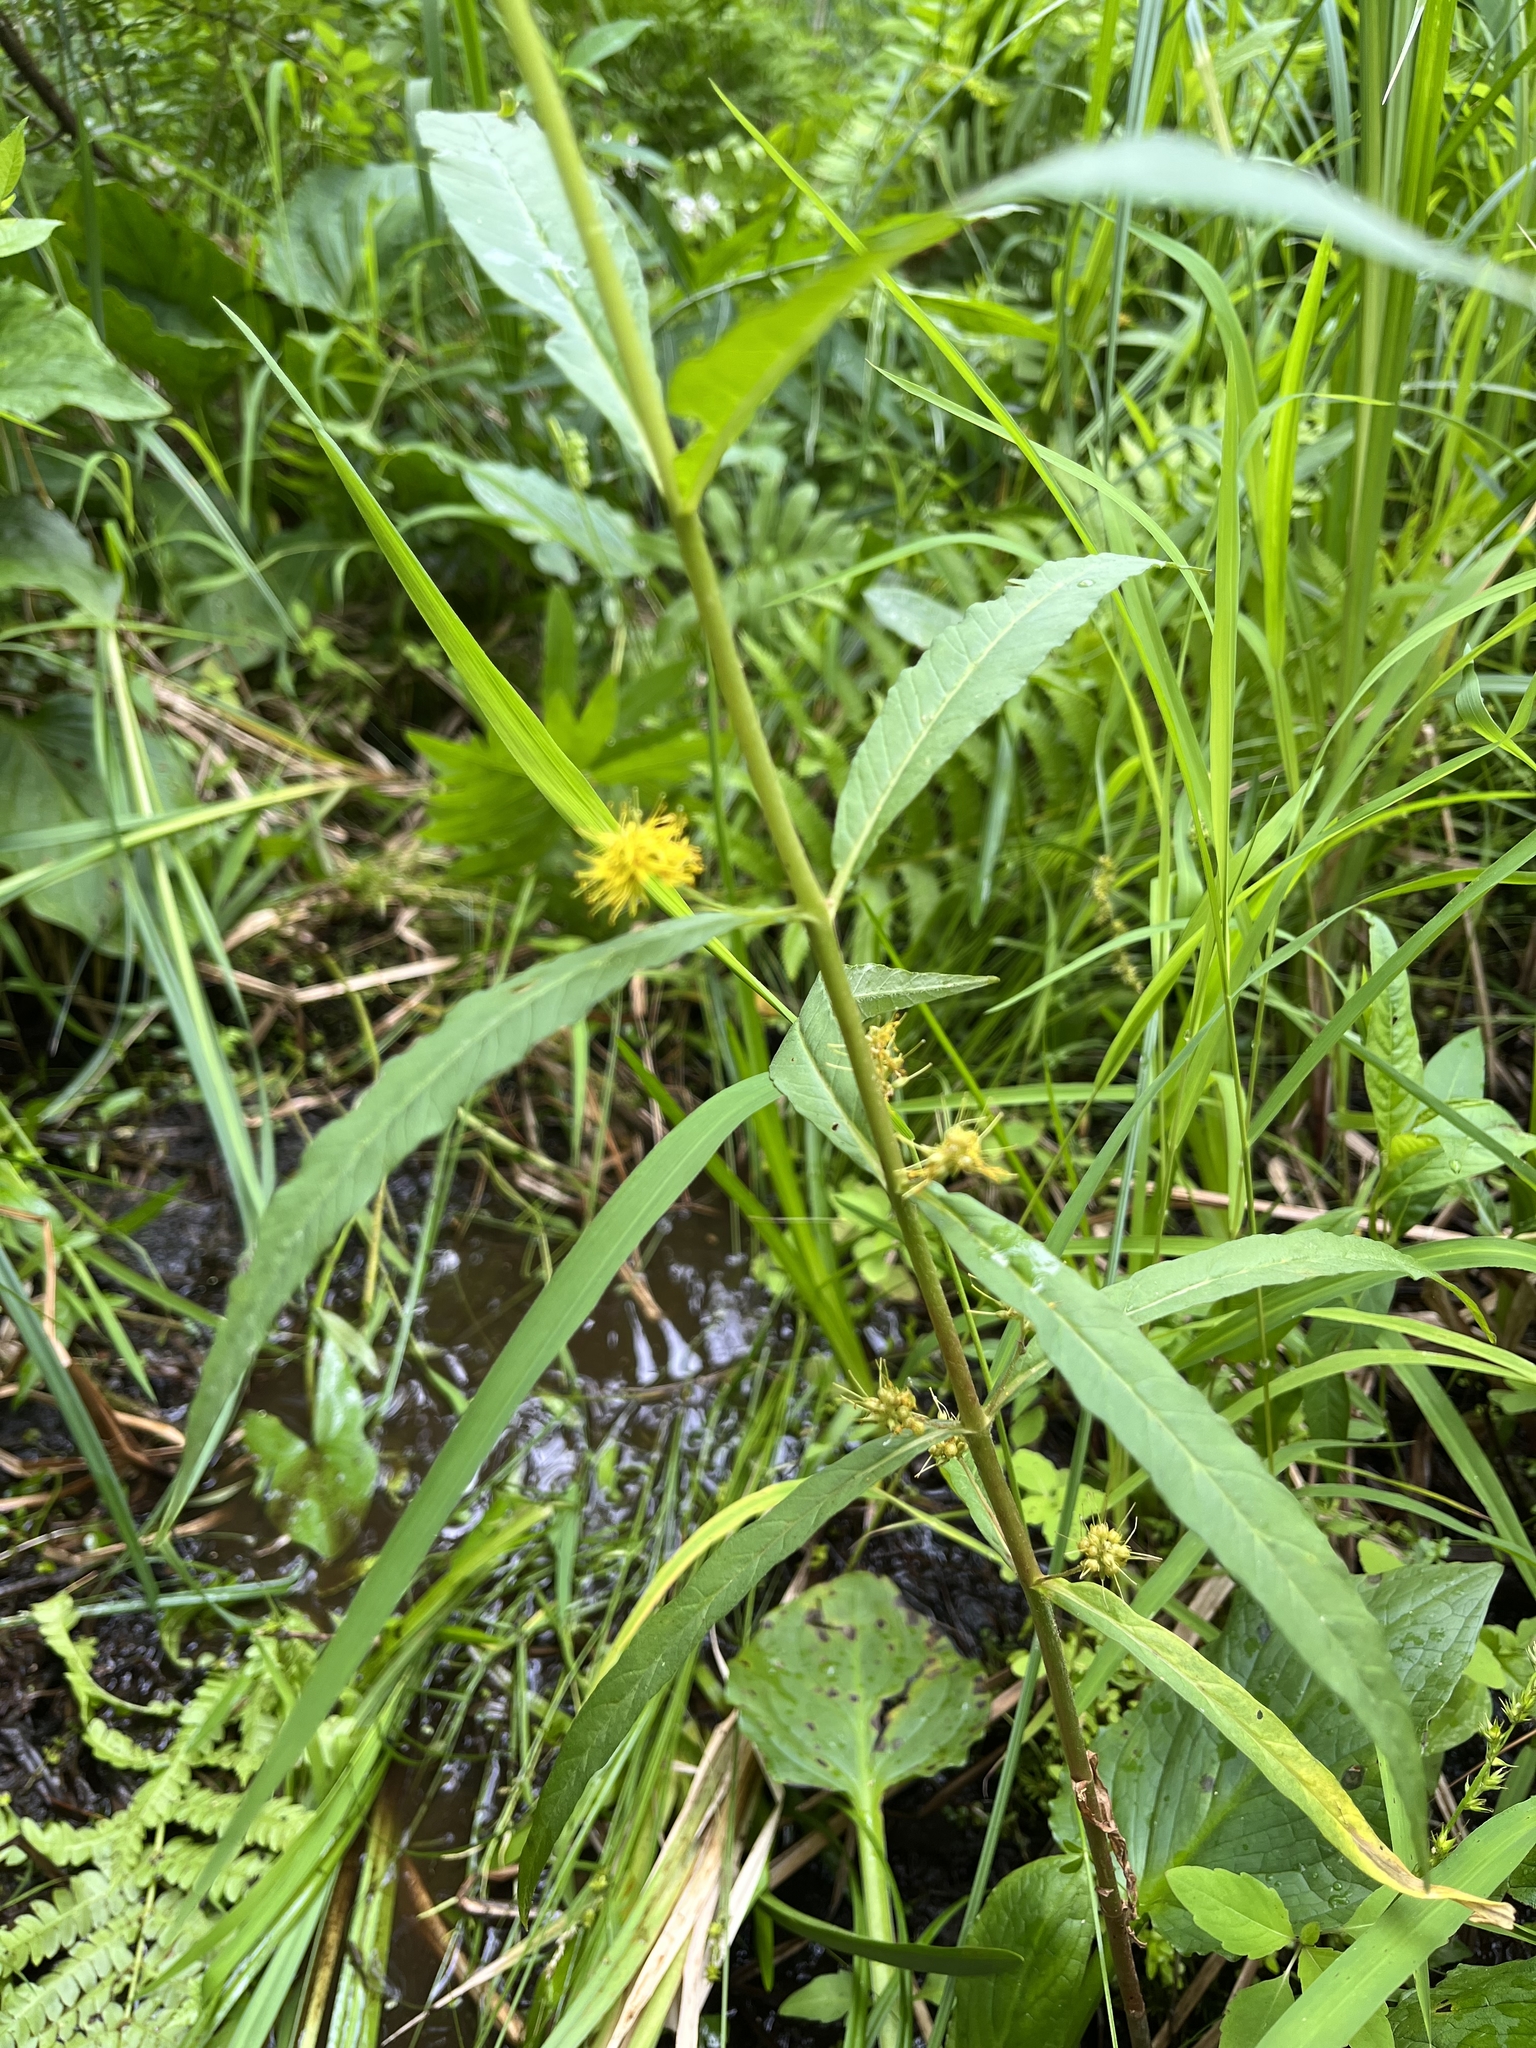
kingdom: Plantae
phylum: Tracheophyta
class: Magnoliopsida
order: Ericales
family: Primulaceae
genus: Lysimachia
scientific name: Lysimachia thyrsiflora
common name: Tufted loosestrife
